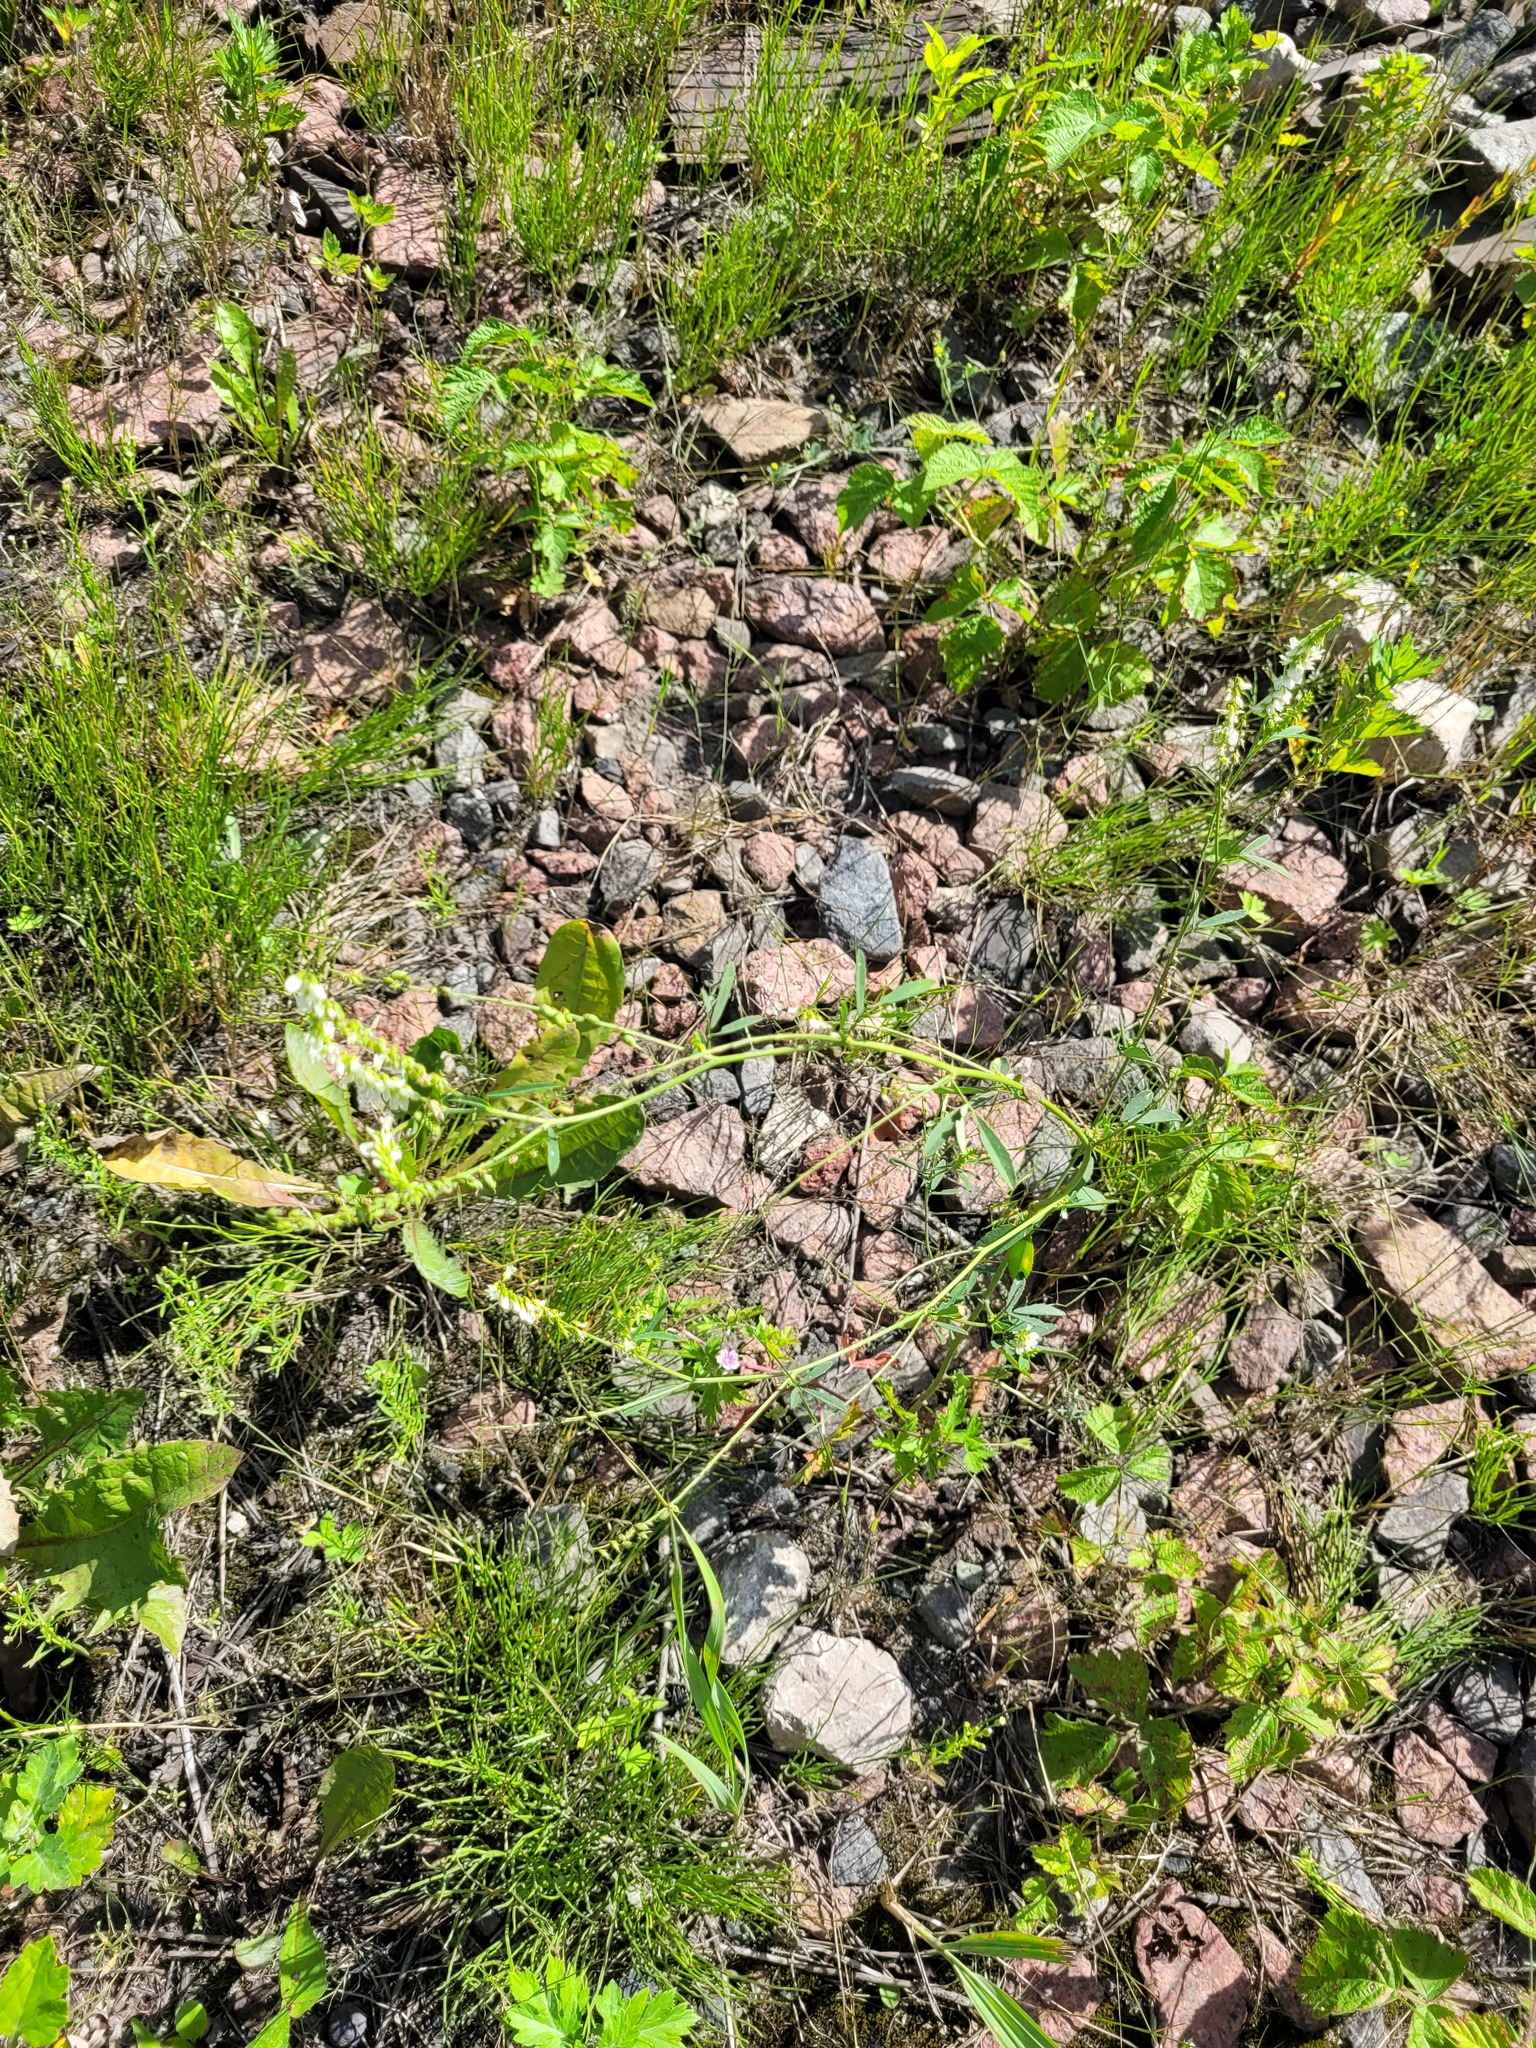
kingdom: Plantae
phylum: Tracheophyta
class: Magnoliopsida
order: Fabales
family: Fabaceae
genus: Melilotus
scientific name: Melilotus albus
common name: White melilot
